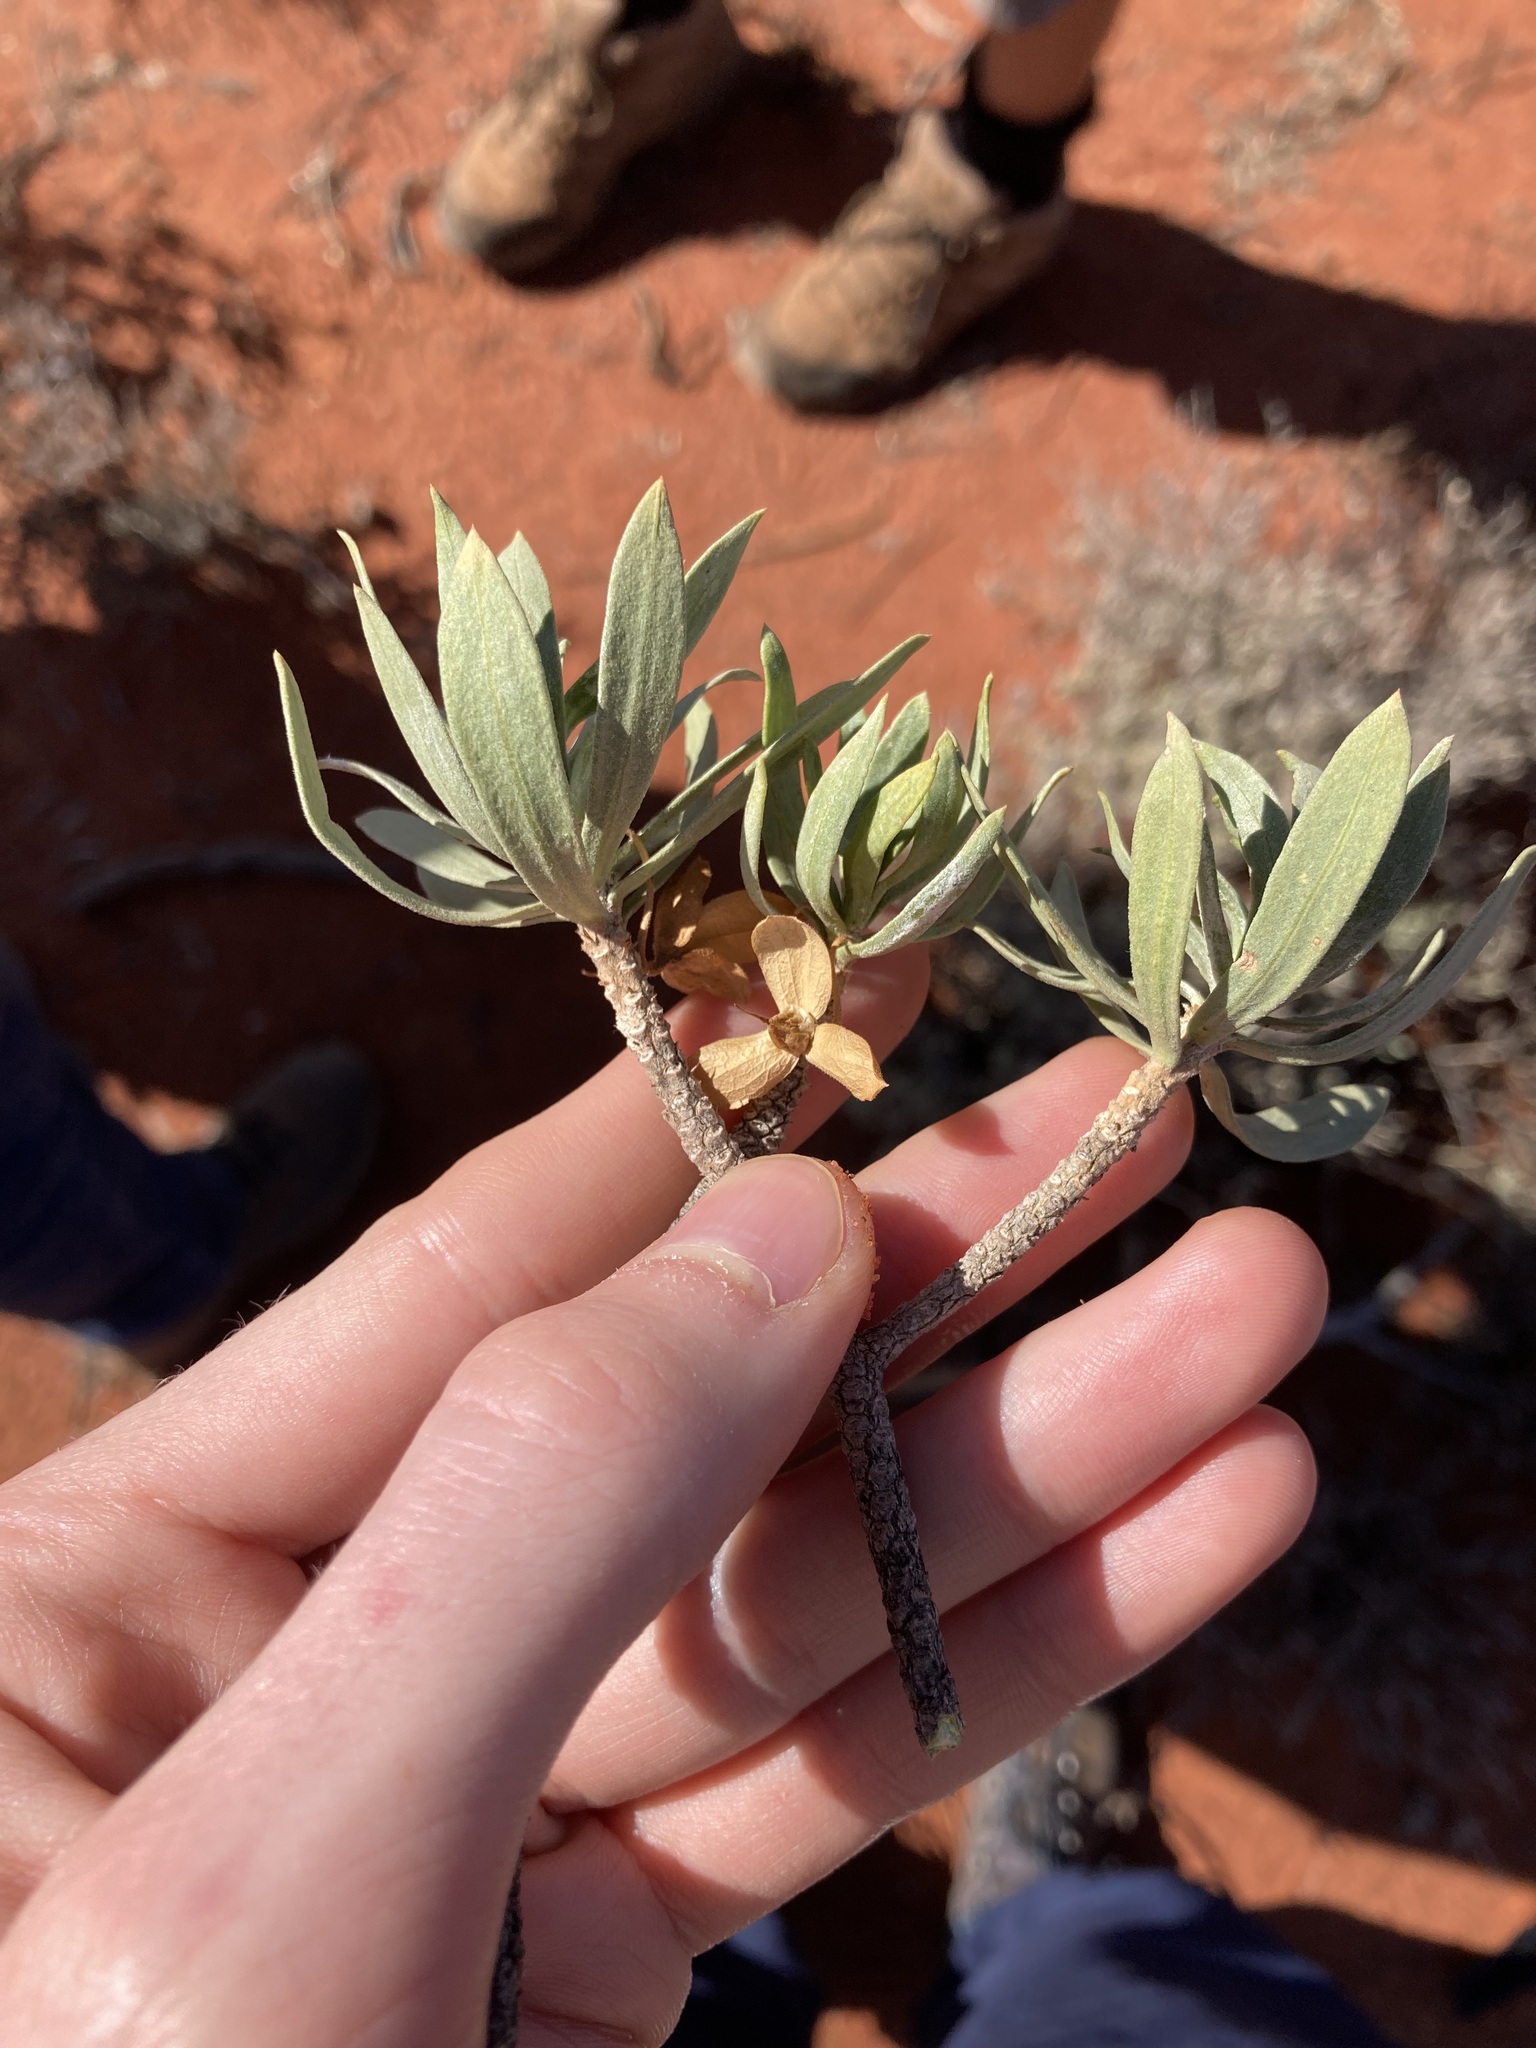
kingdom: Plantae
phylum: Tracheophyta
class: Magnoliopsida
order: Lamiales
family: Scrophulariaceae
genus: Eremophila
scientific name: Eremophila miniata
